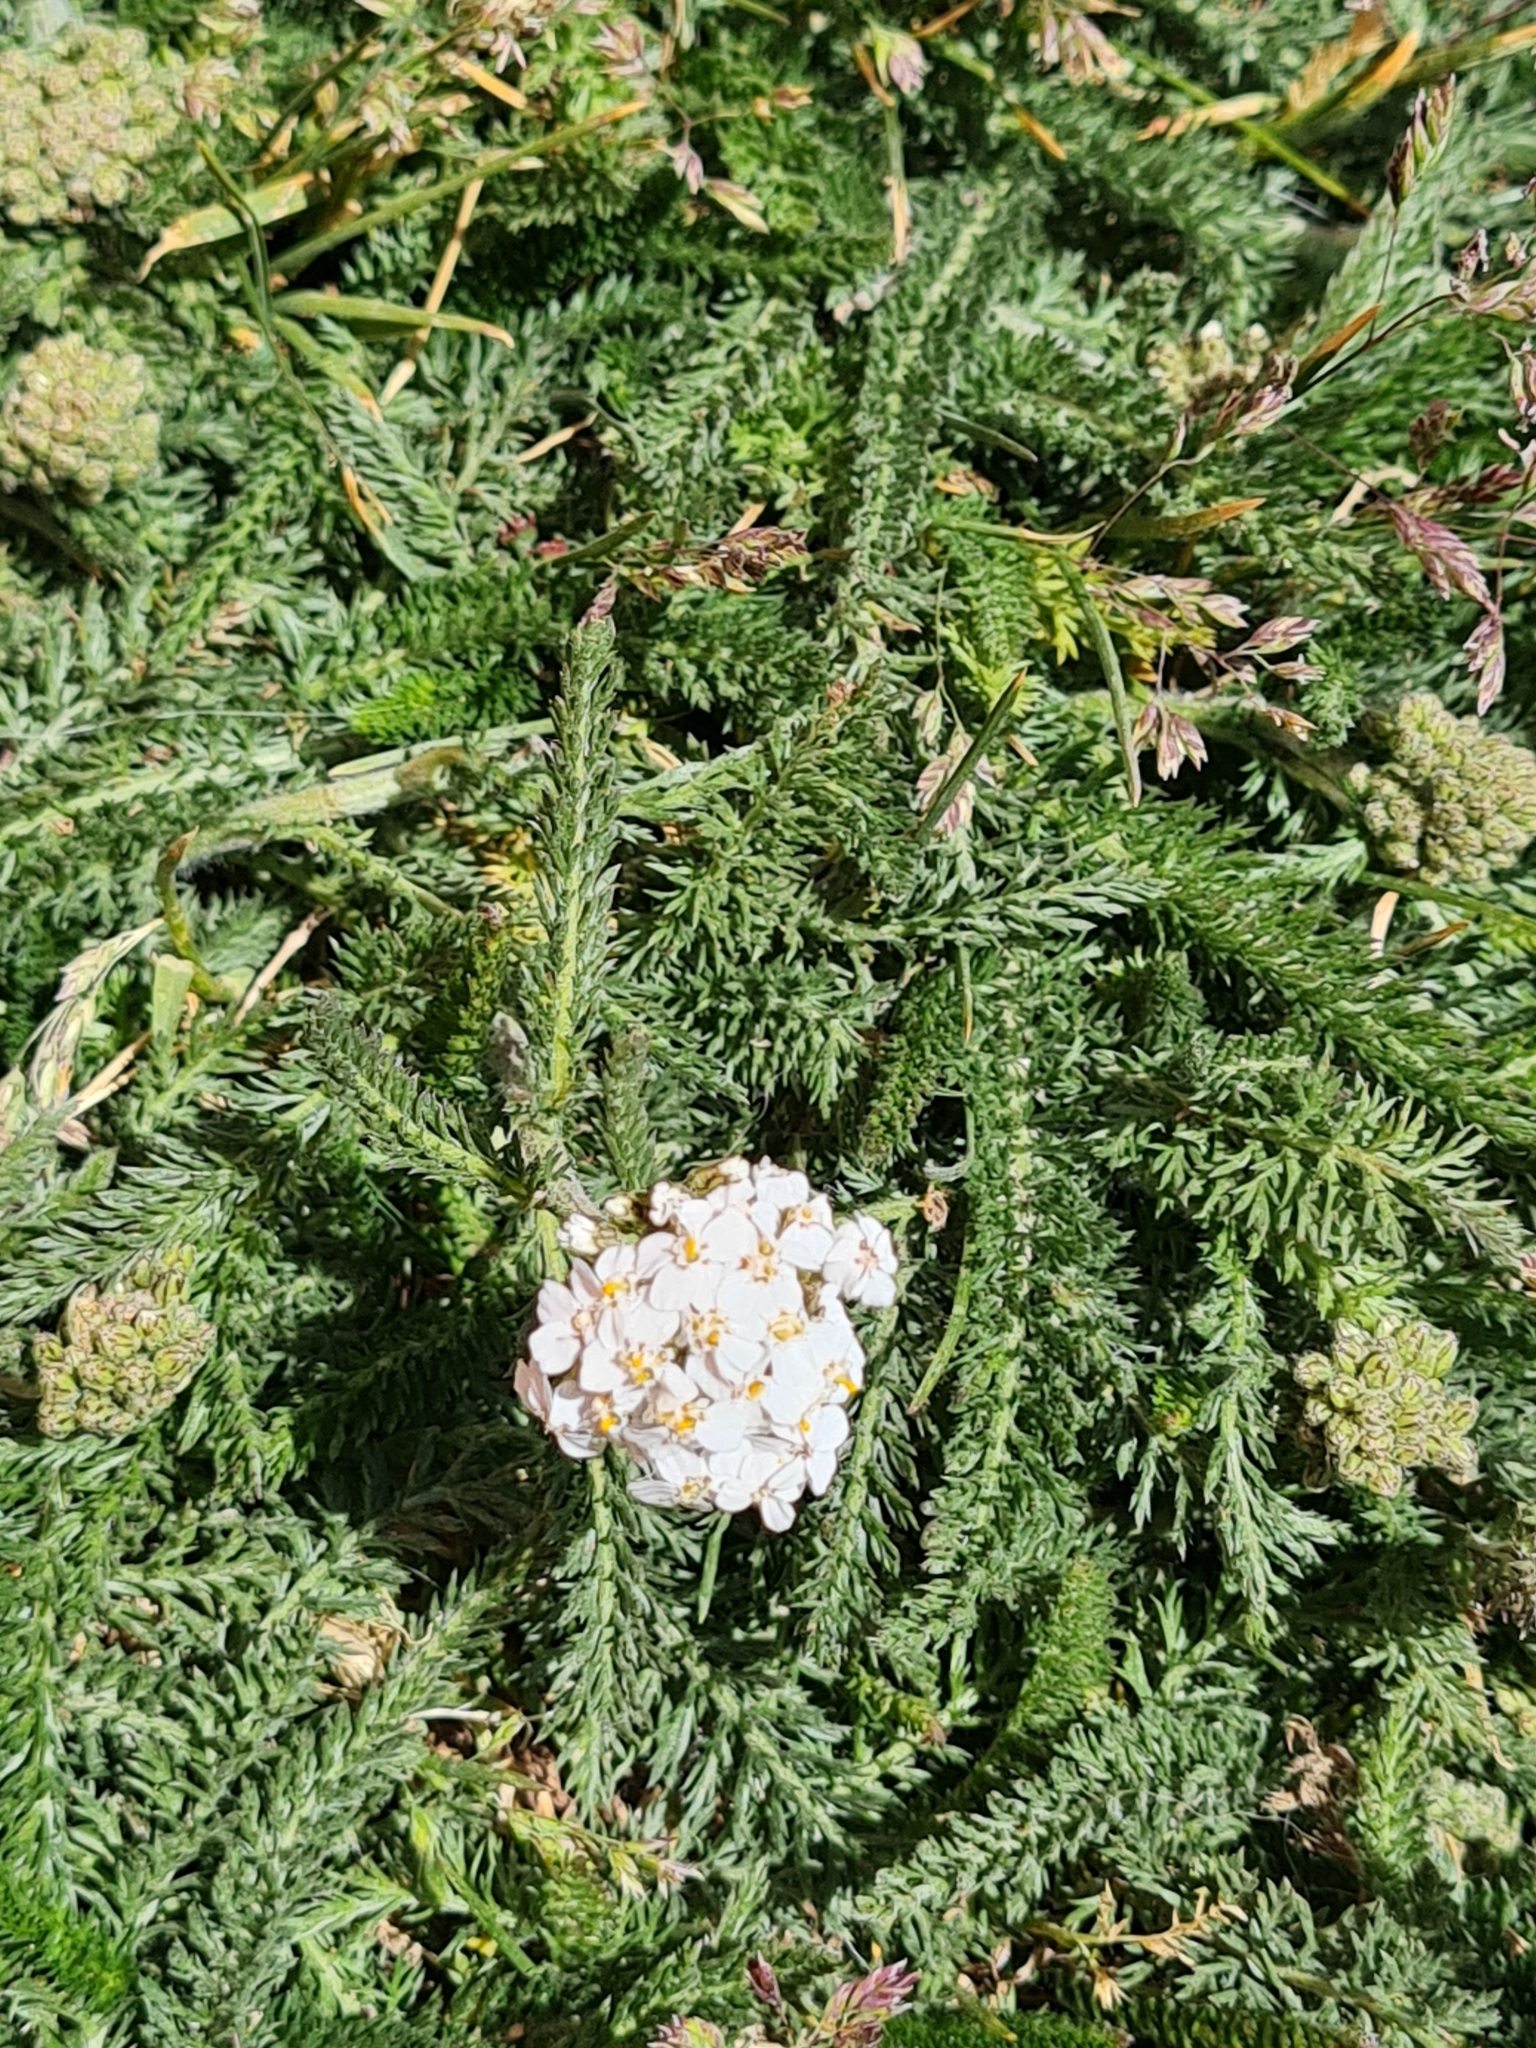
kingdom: Plantae
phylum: Tracheophyta
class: Magnoliopsida
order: Asterales
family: Asteraceae
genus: Achillea
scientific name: Achillea millefolium
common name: Yarrow
